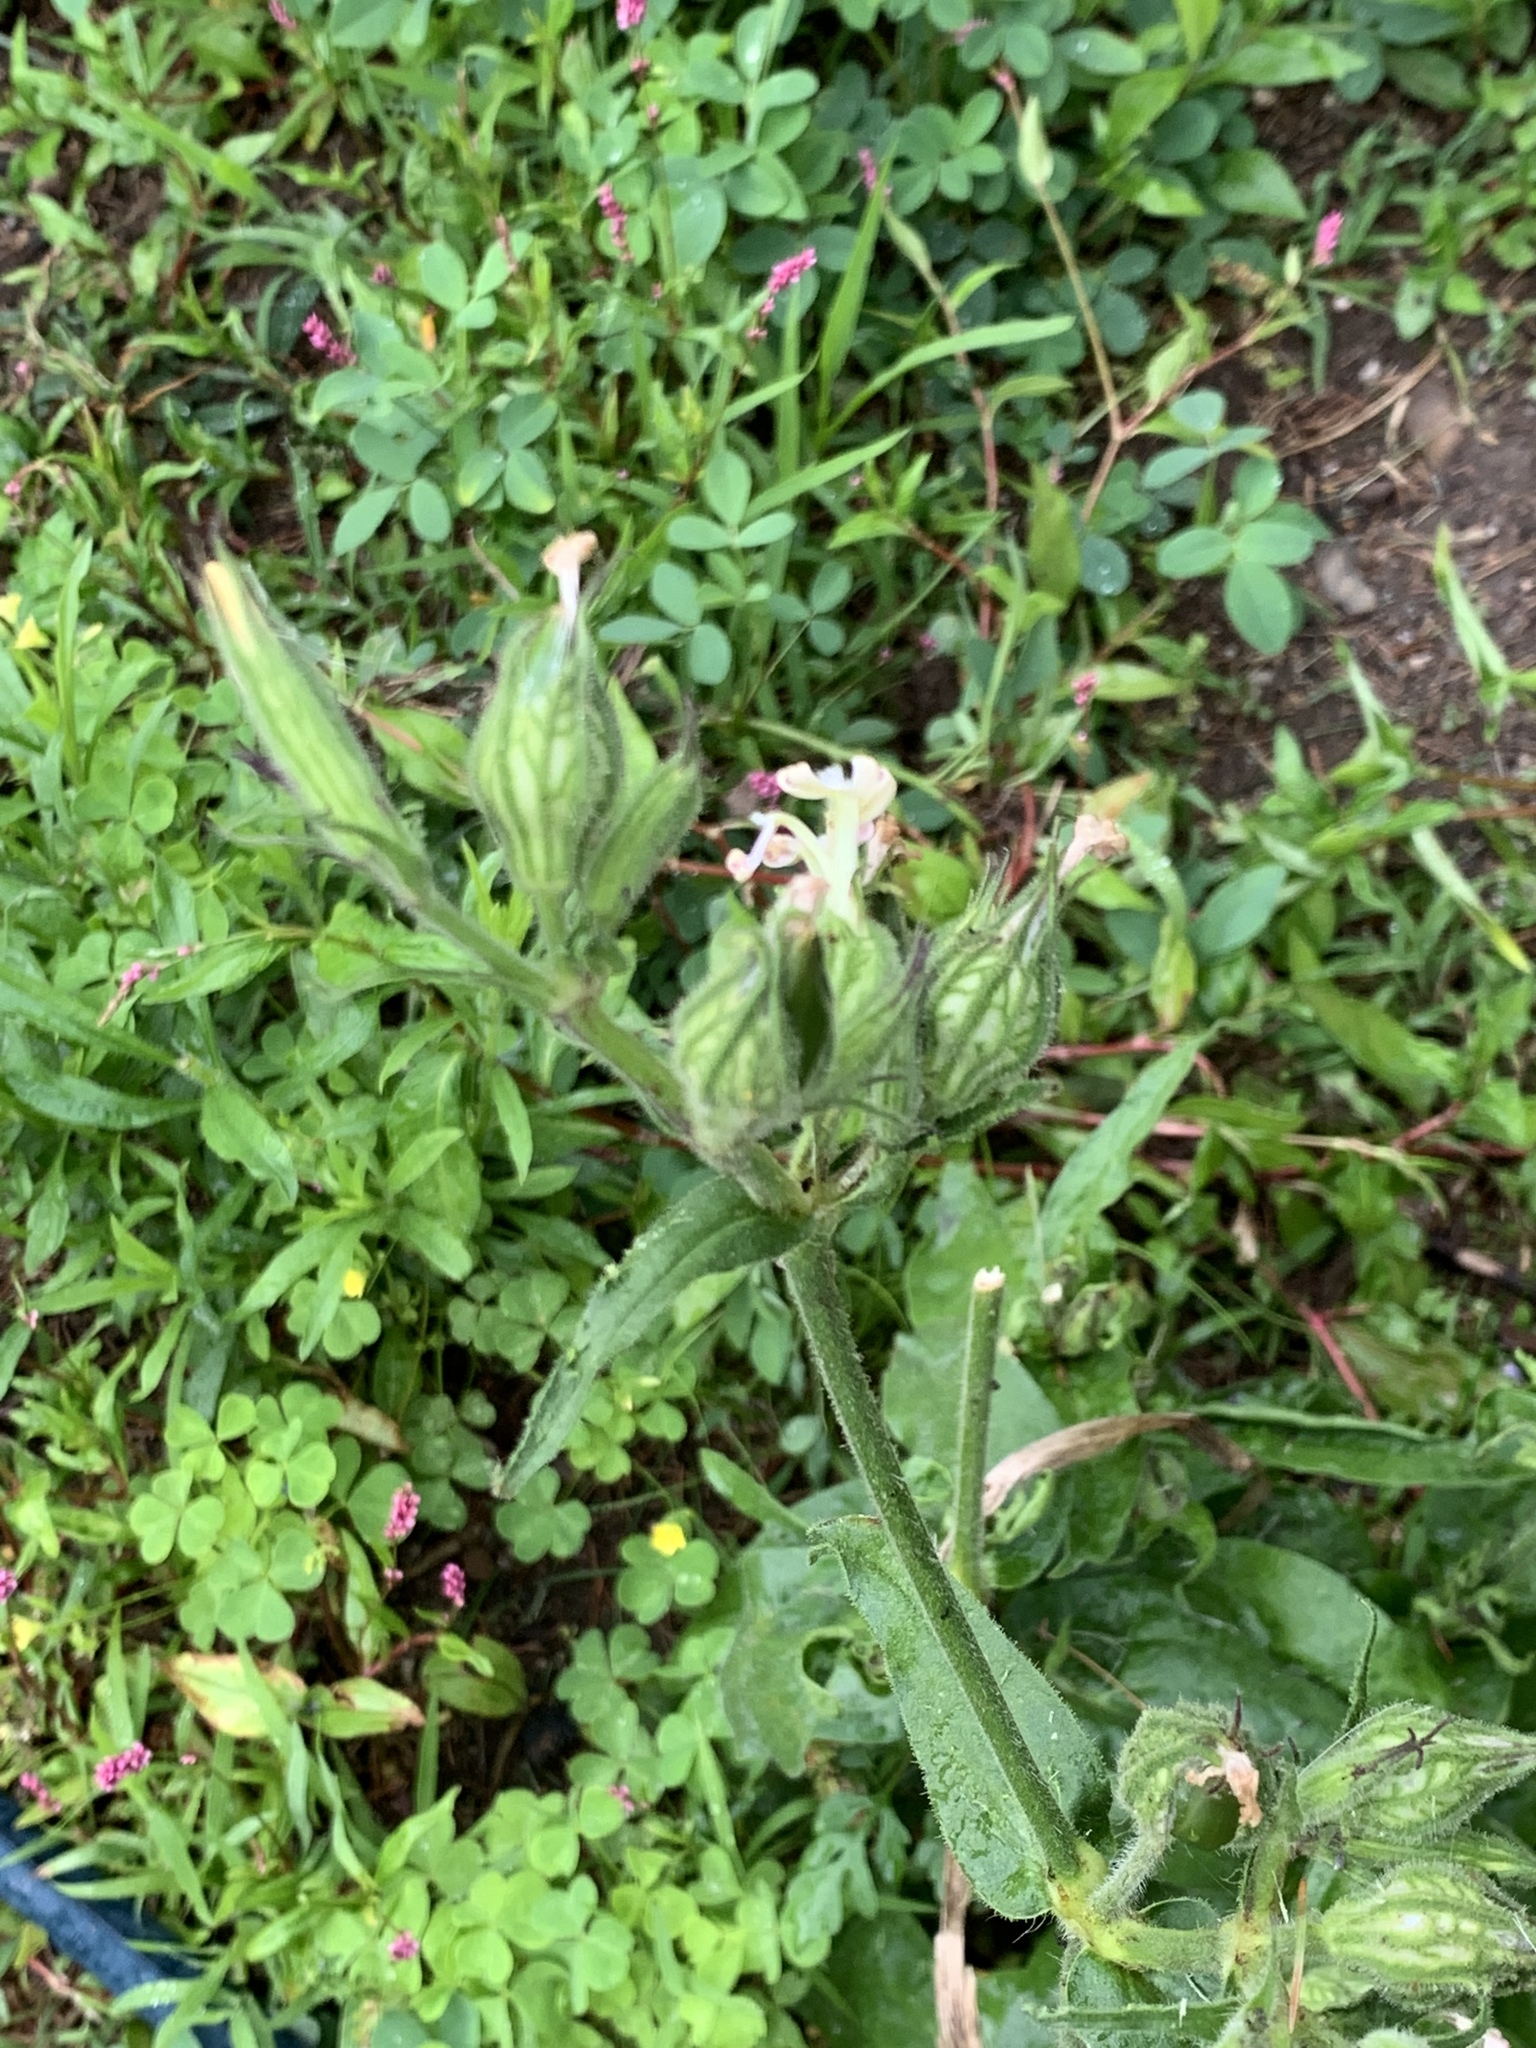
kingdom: Plantae
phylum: Tracheophyta
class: Magnoliopsida
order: Caryophyllales
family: Caryophyllaceae
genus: Silene
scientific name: Silene latifolia
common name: White campion
